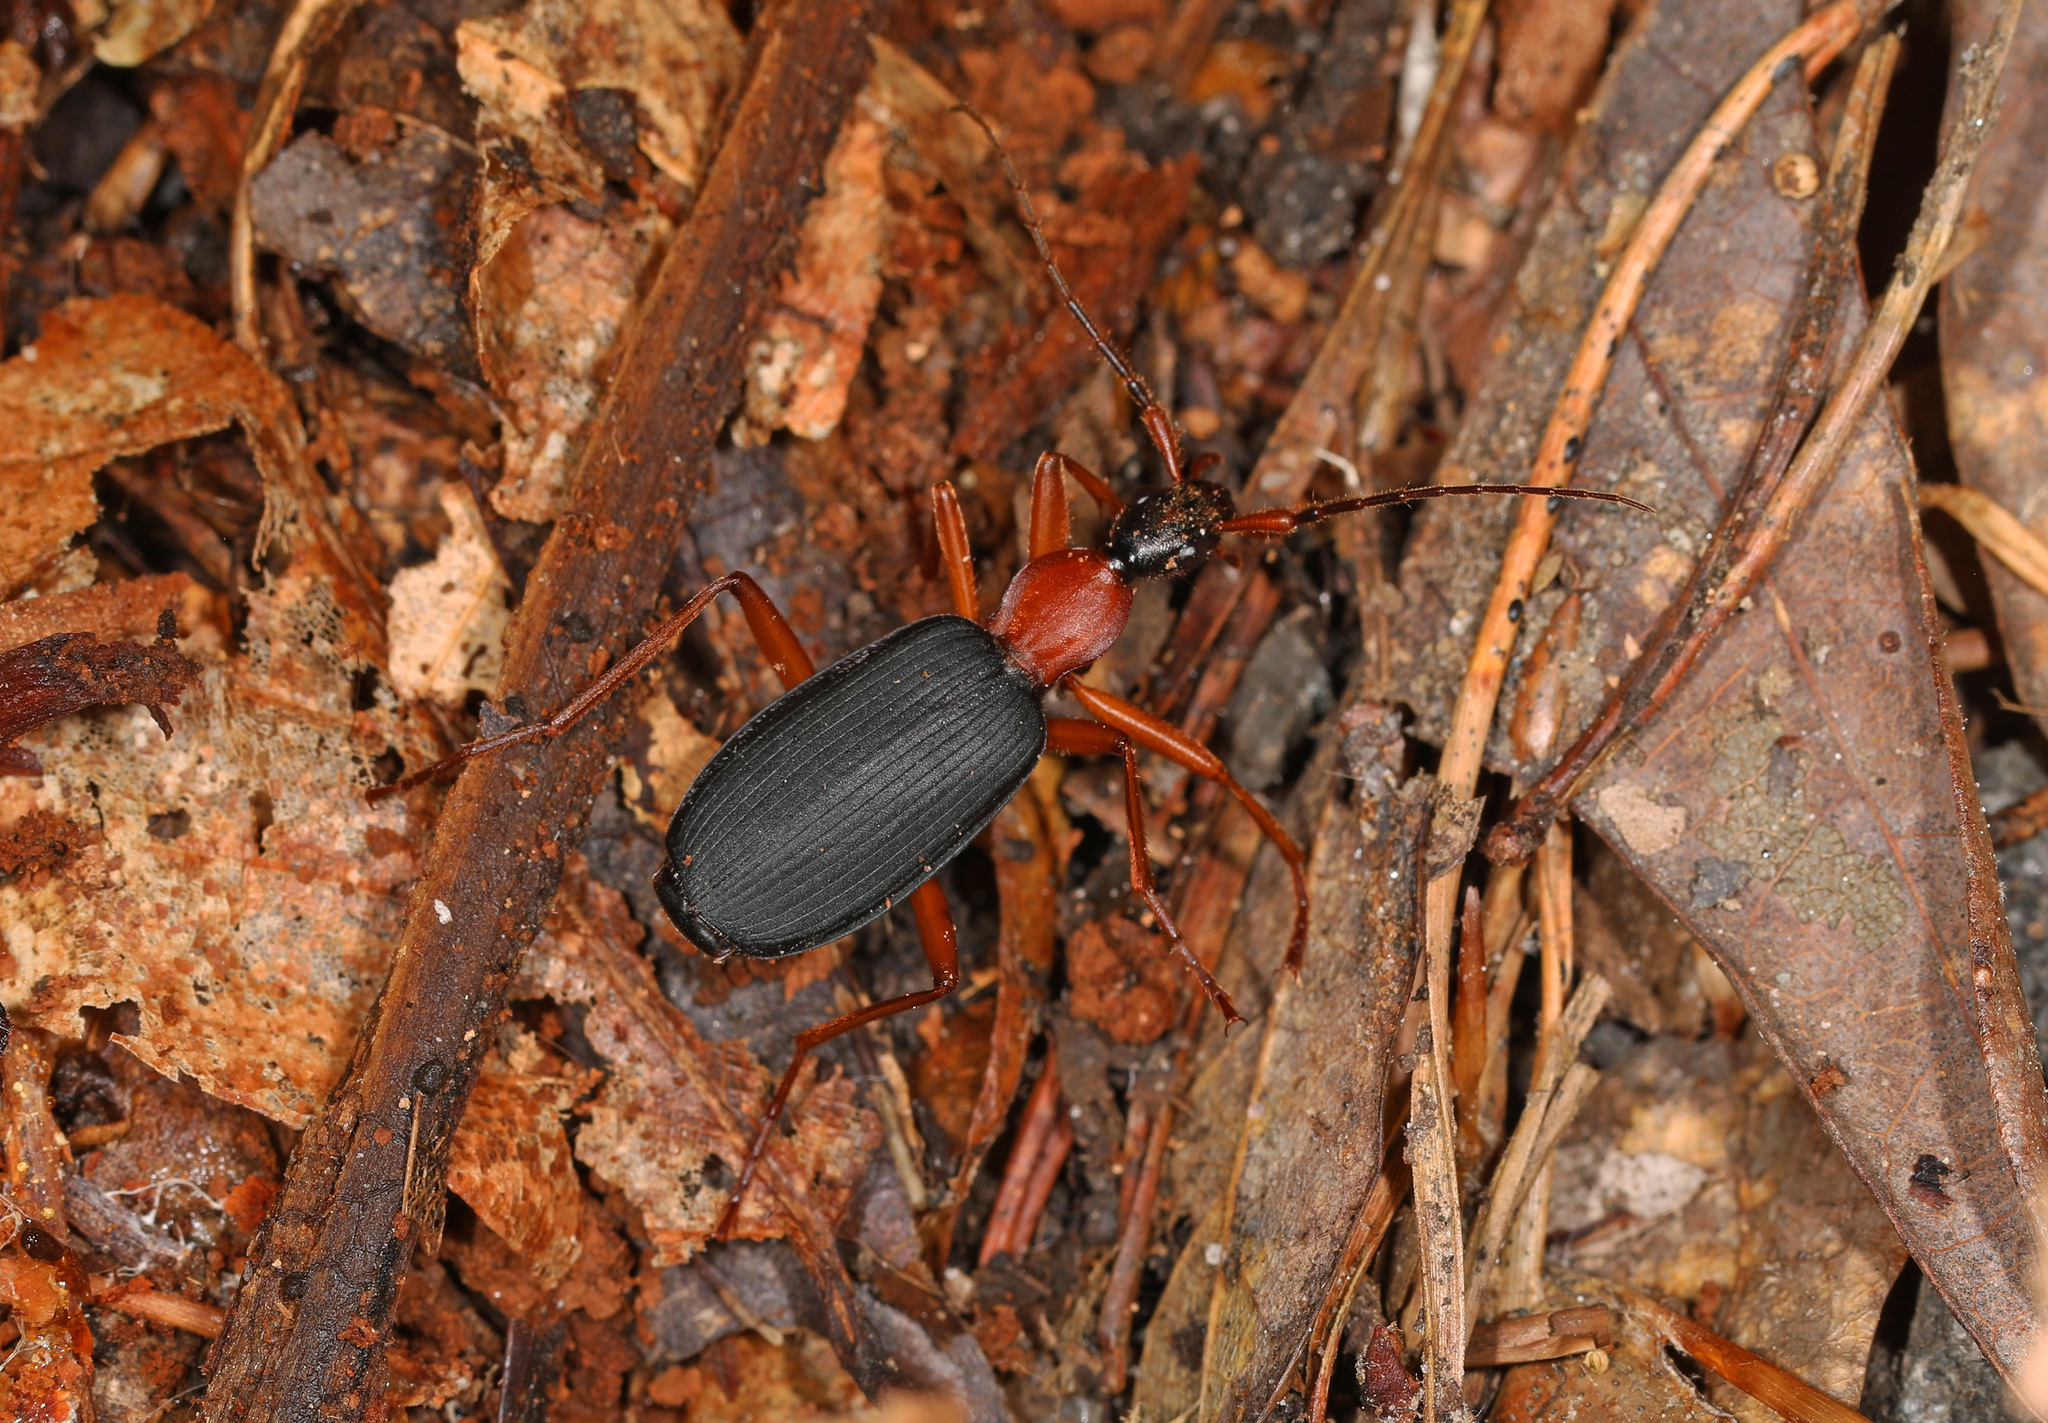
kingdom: Animalia
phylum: Arthropoda
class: Insecta
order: Coleoptera
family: Carabidae
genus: Galerita
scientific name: Galerita bicolor
